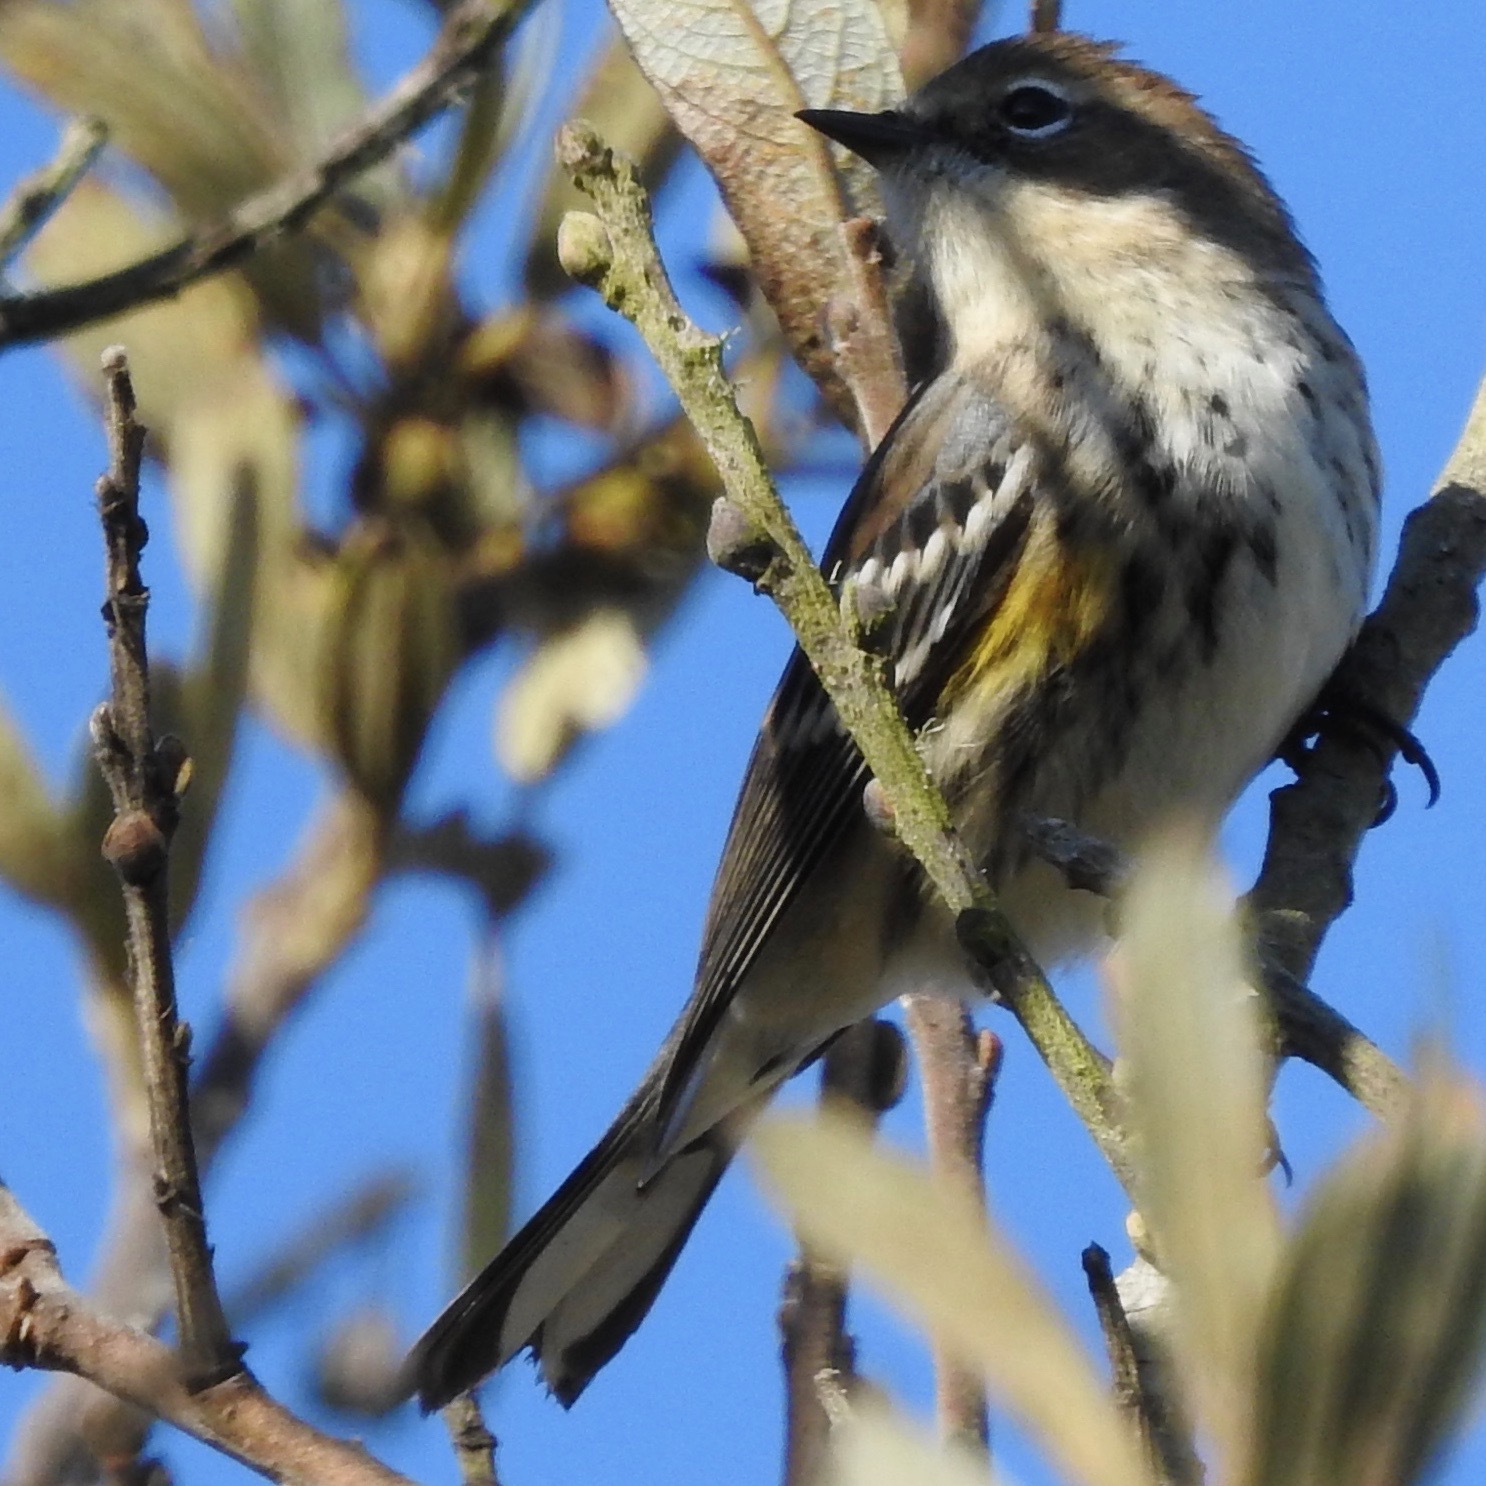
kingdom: Animalia
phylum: Chordata
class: Aves
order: Passeriformes
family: Parulidae
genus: Setophaga
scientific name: Setophaga coronata
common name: Myrtle warbler
